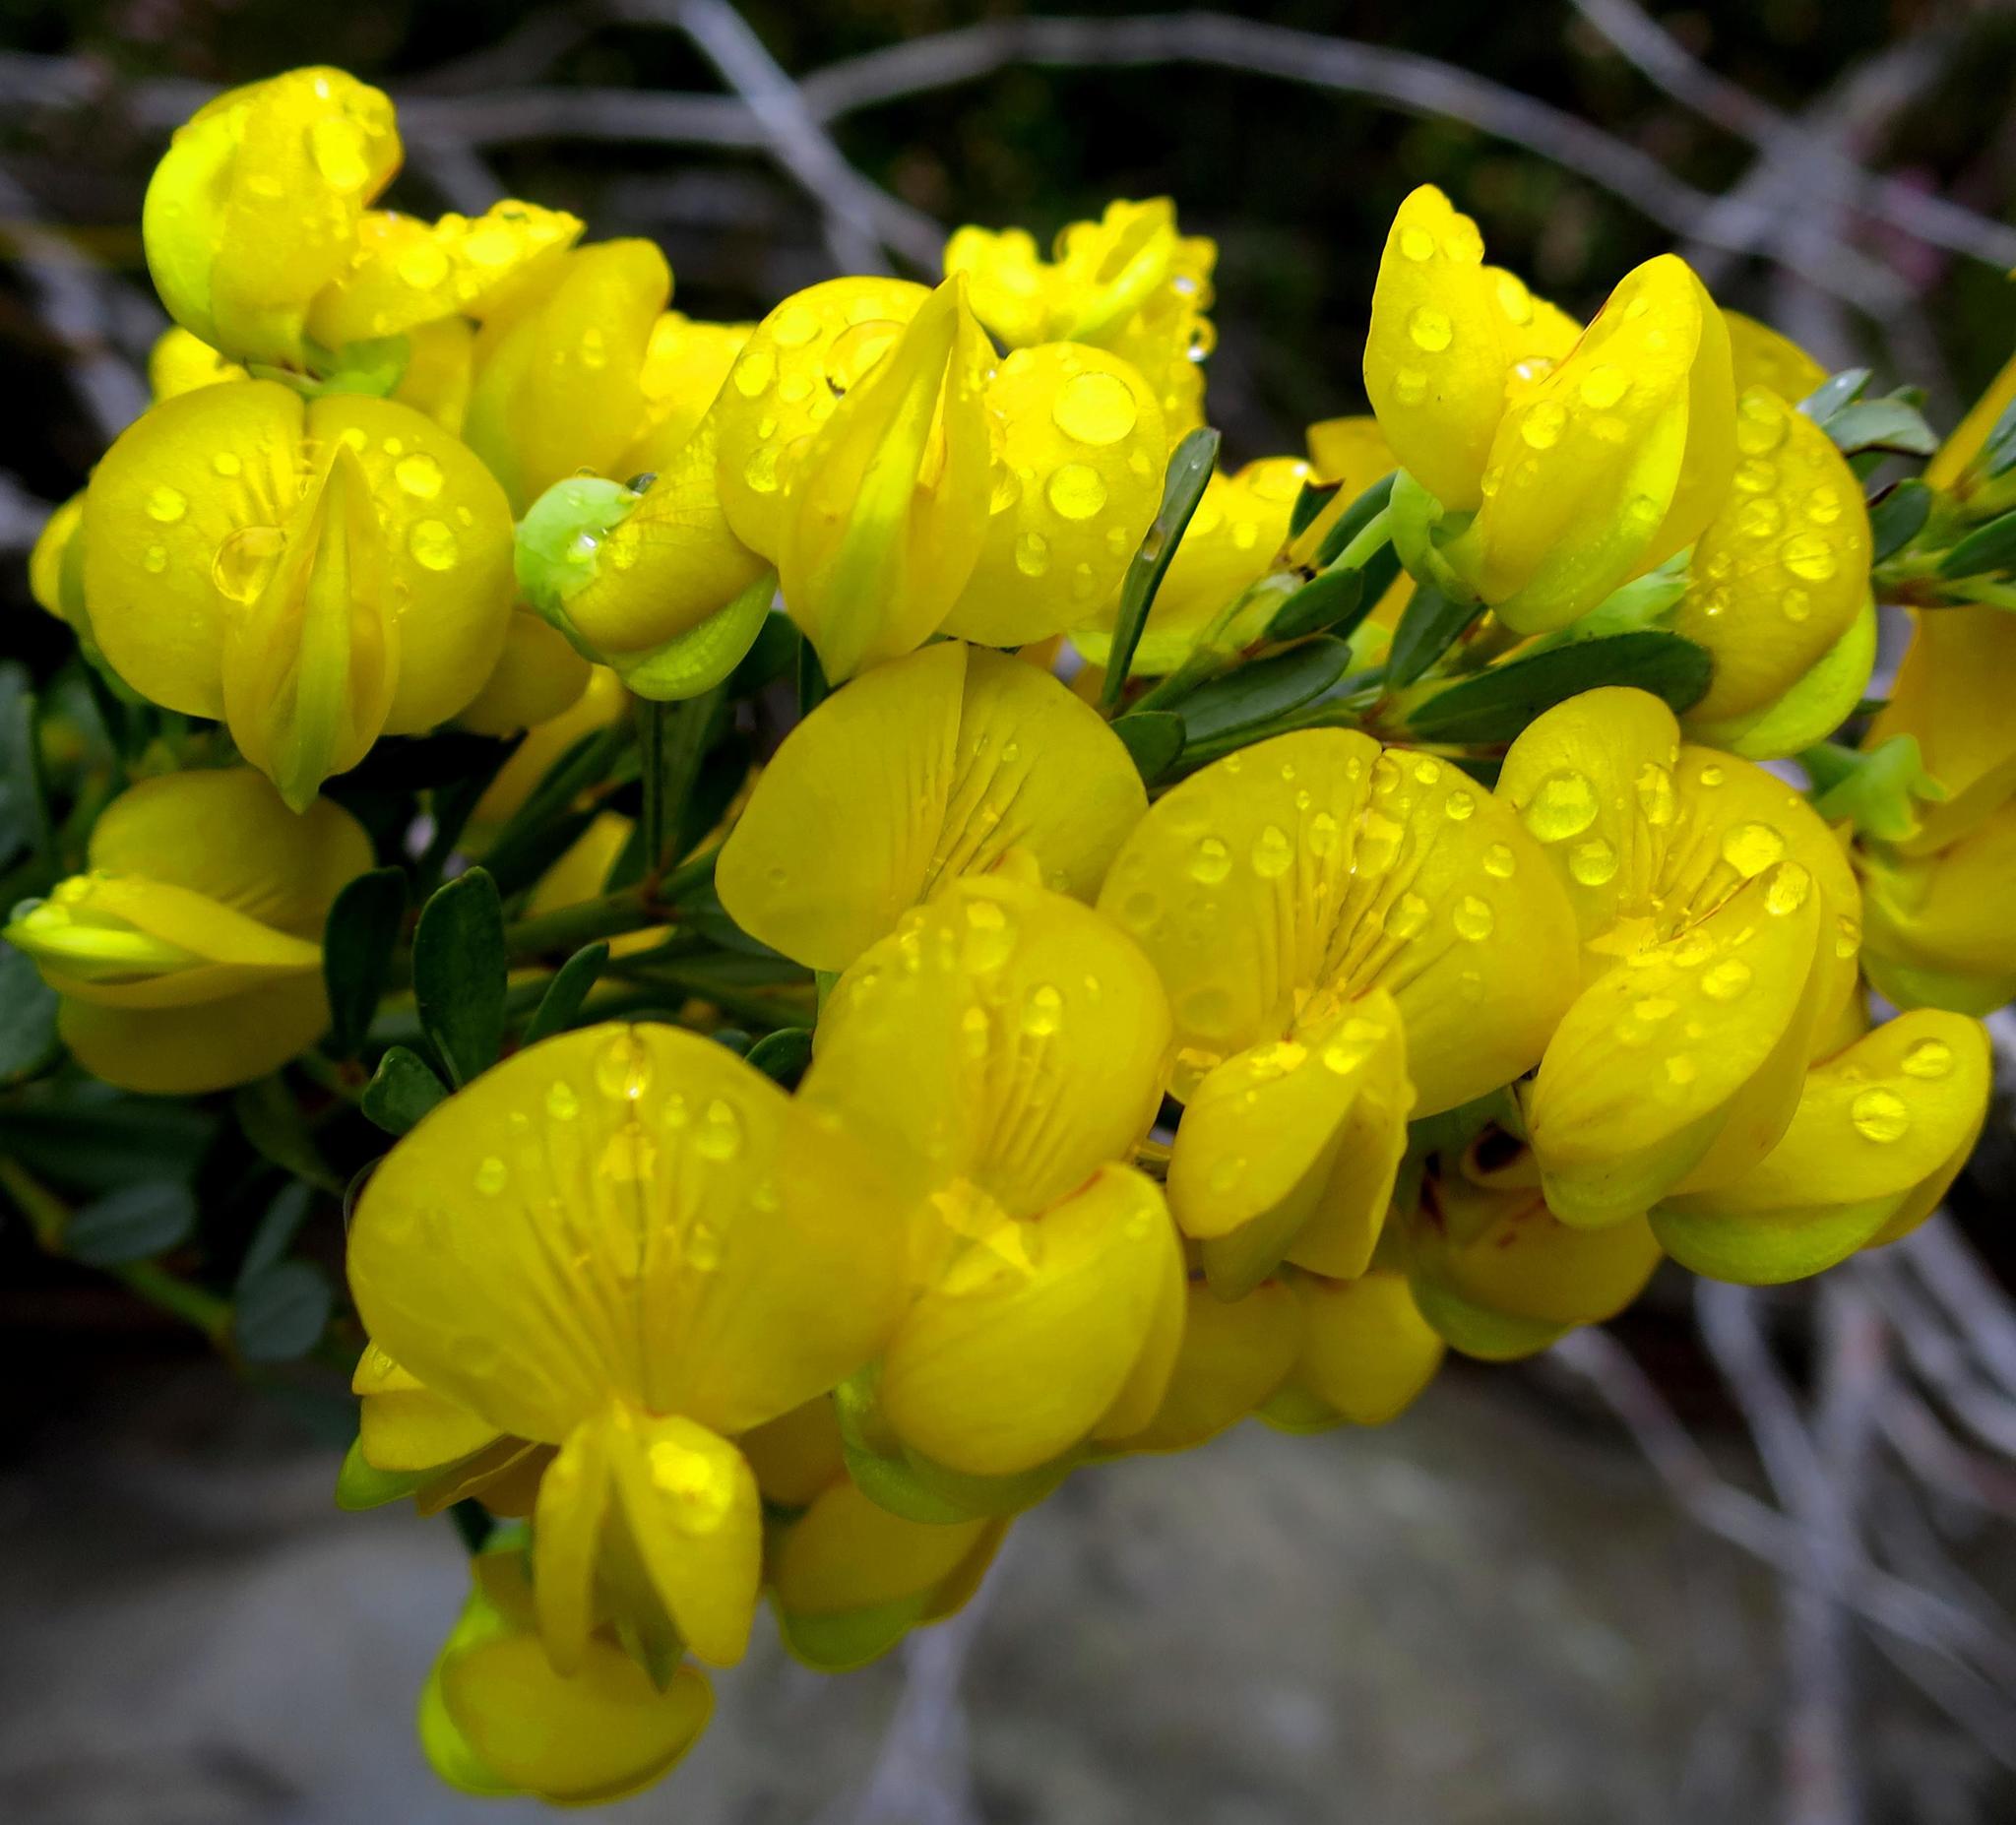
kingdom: Plantae
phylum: Tracheophyta
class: Magnoliopsida
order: Fabales
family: Fabaceae
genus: Cyclopia
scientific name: Cyclopia subternata
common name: Honeybush tea
